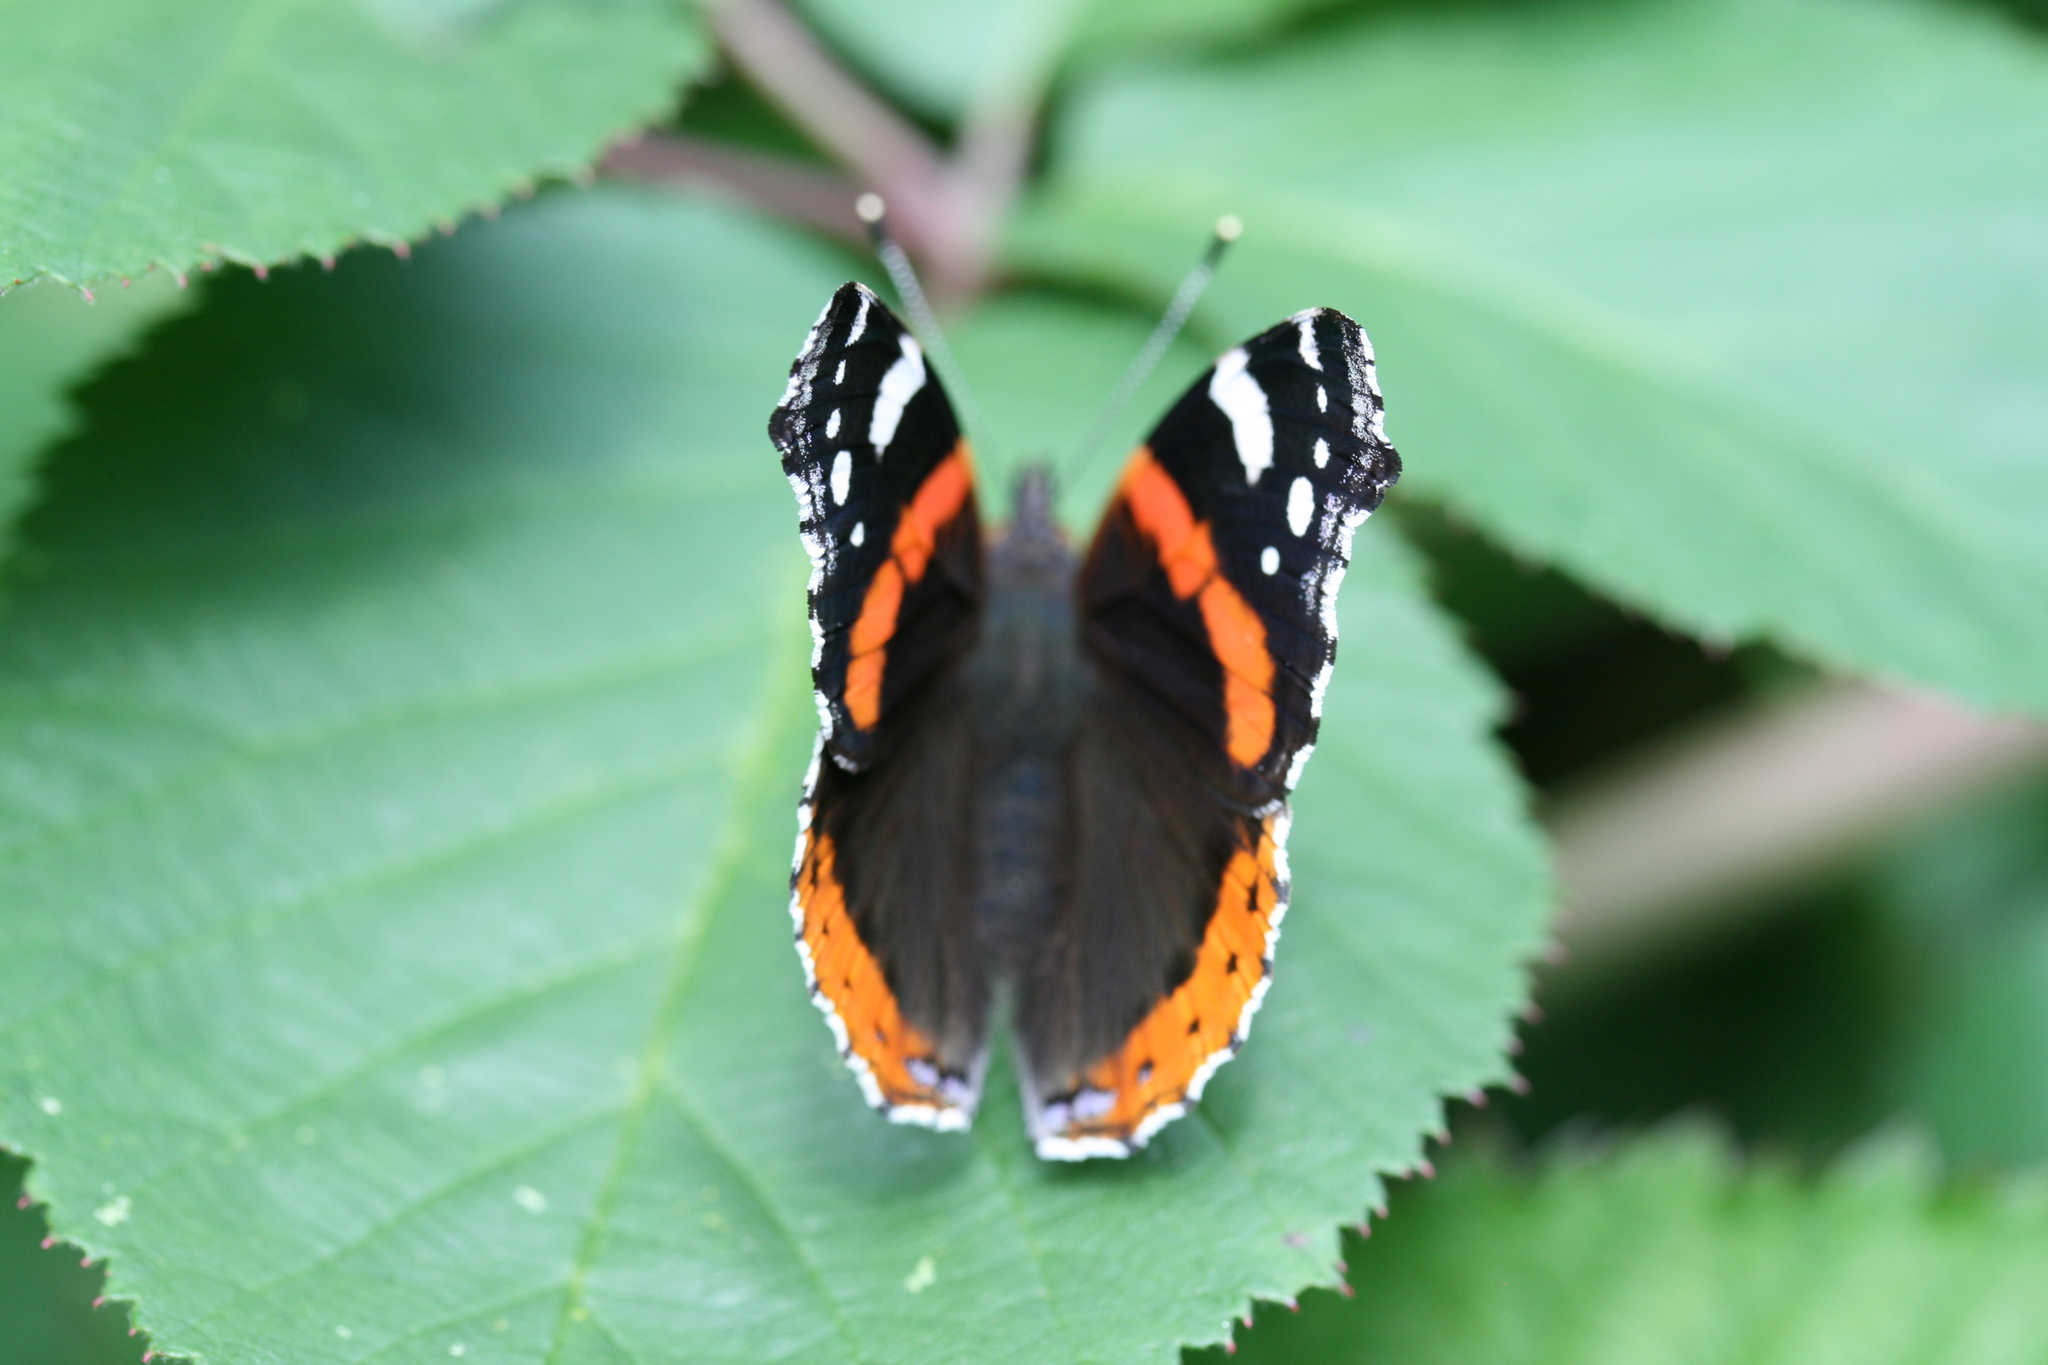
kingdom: Animalia
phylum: Arthropoda
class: Insecta
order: Lepidoptera
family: Nymphalidae
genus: Vanessa
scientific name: Vanessa atalanta
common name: Red admiral
